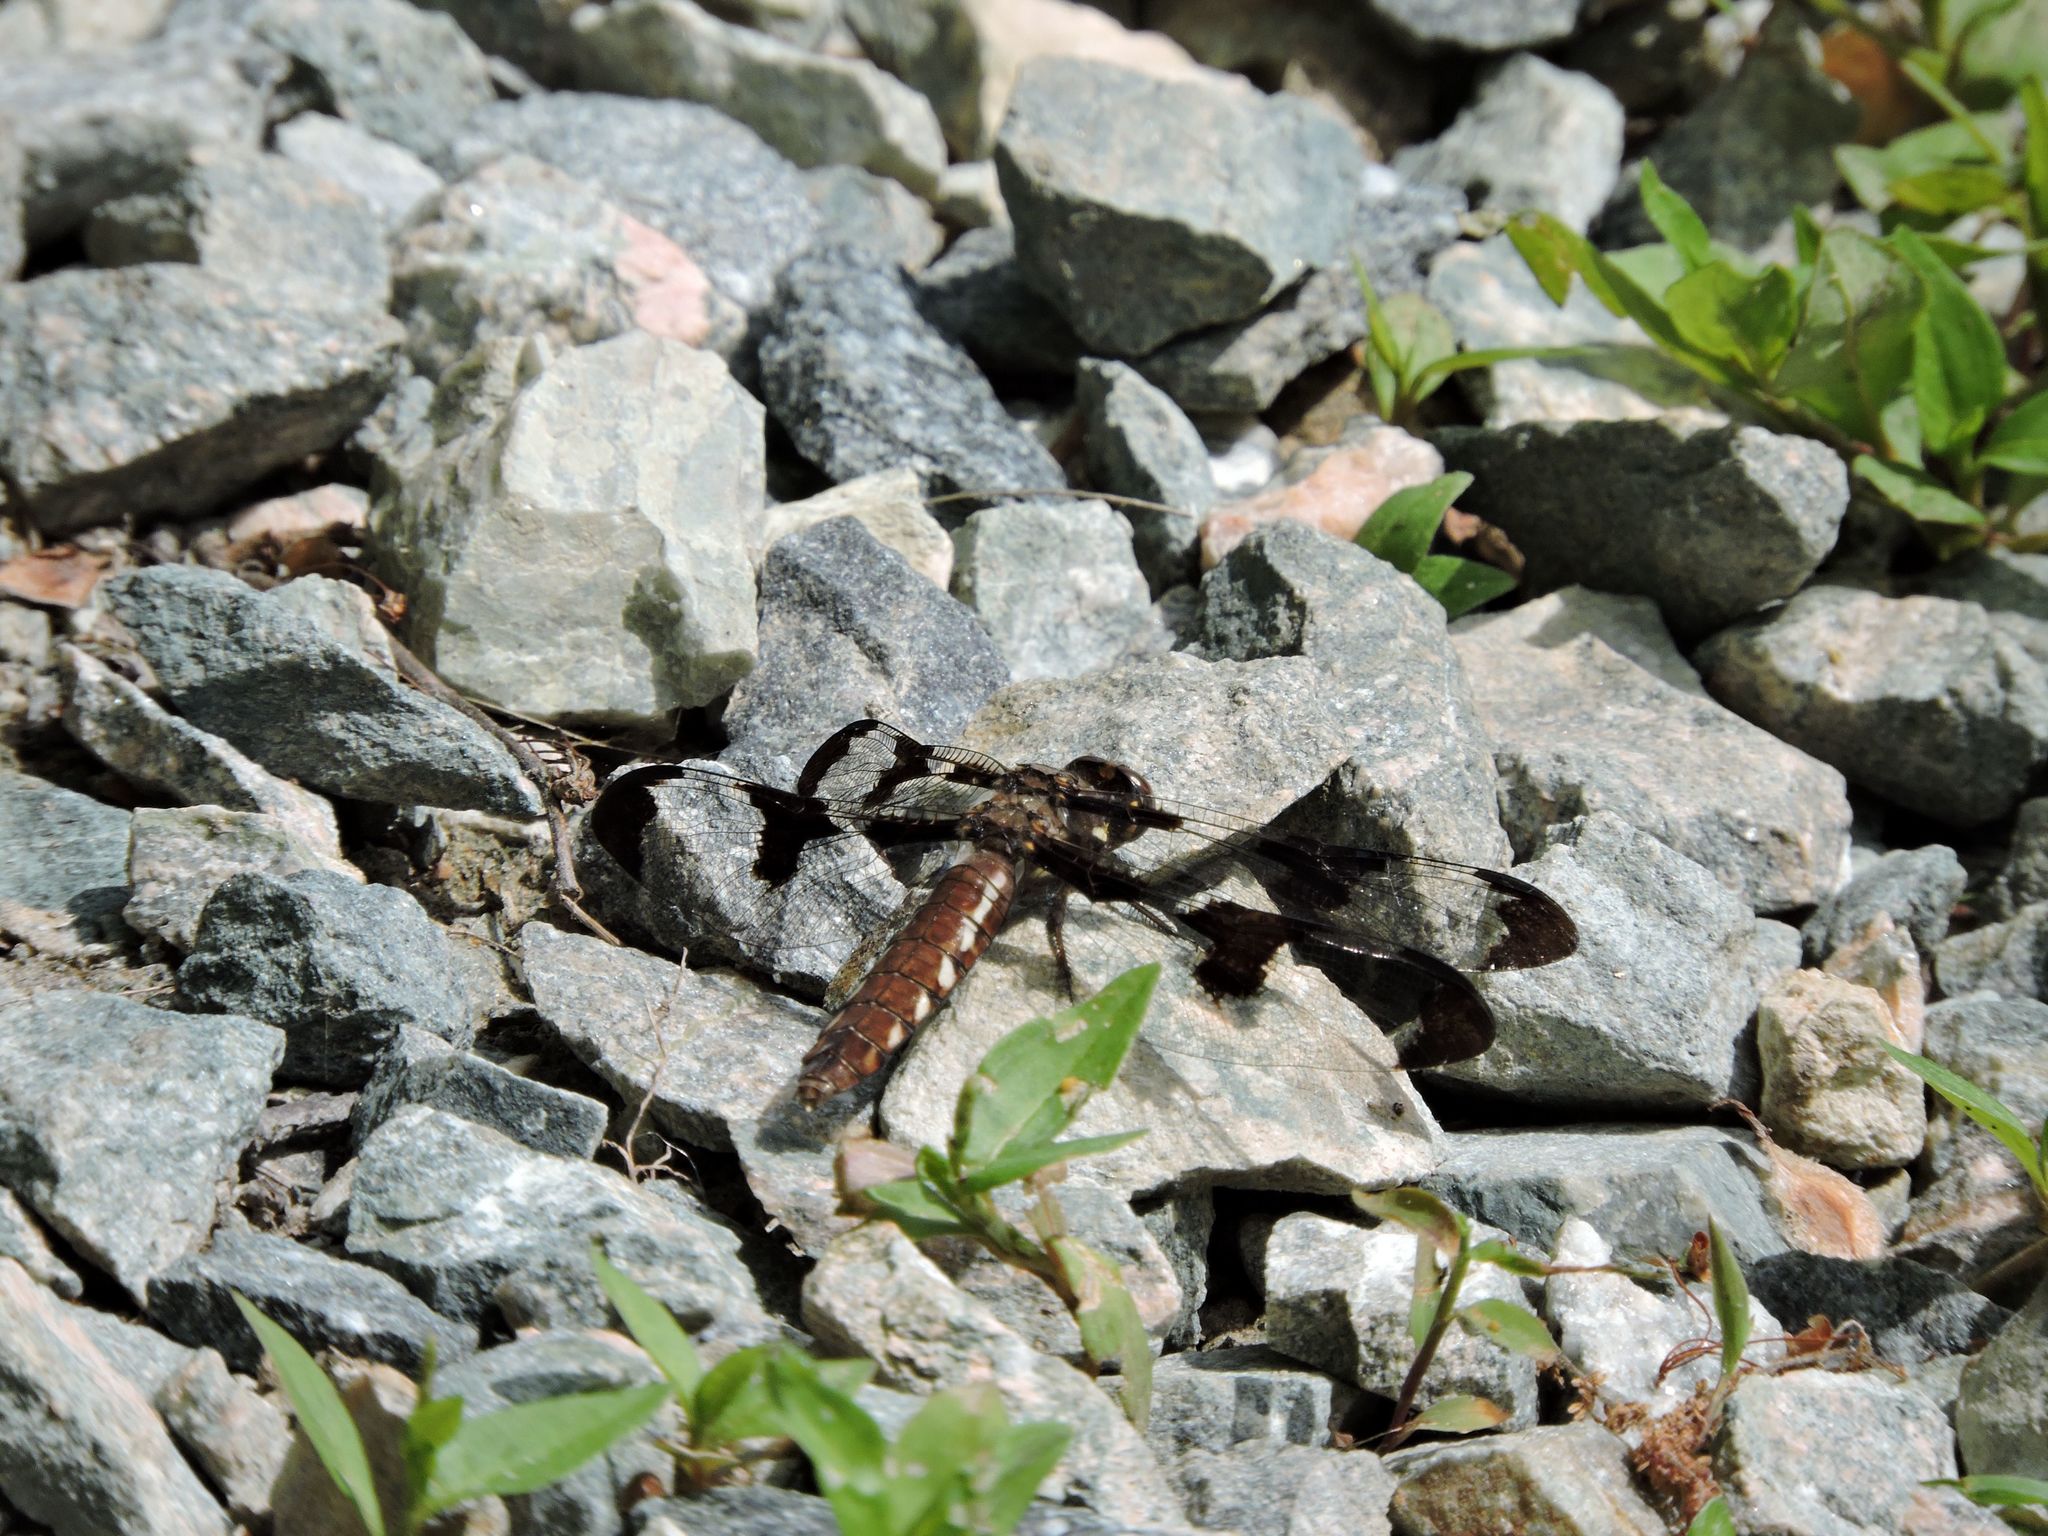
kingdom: Animalia
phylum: Arthropoda
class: Insecta
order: Odonata
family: Libellulidae
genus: Plathemis
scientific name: Plathemis lydia
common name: Common whitetail
